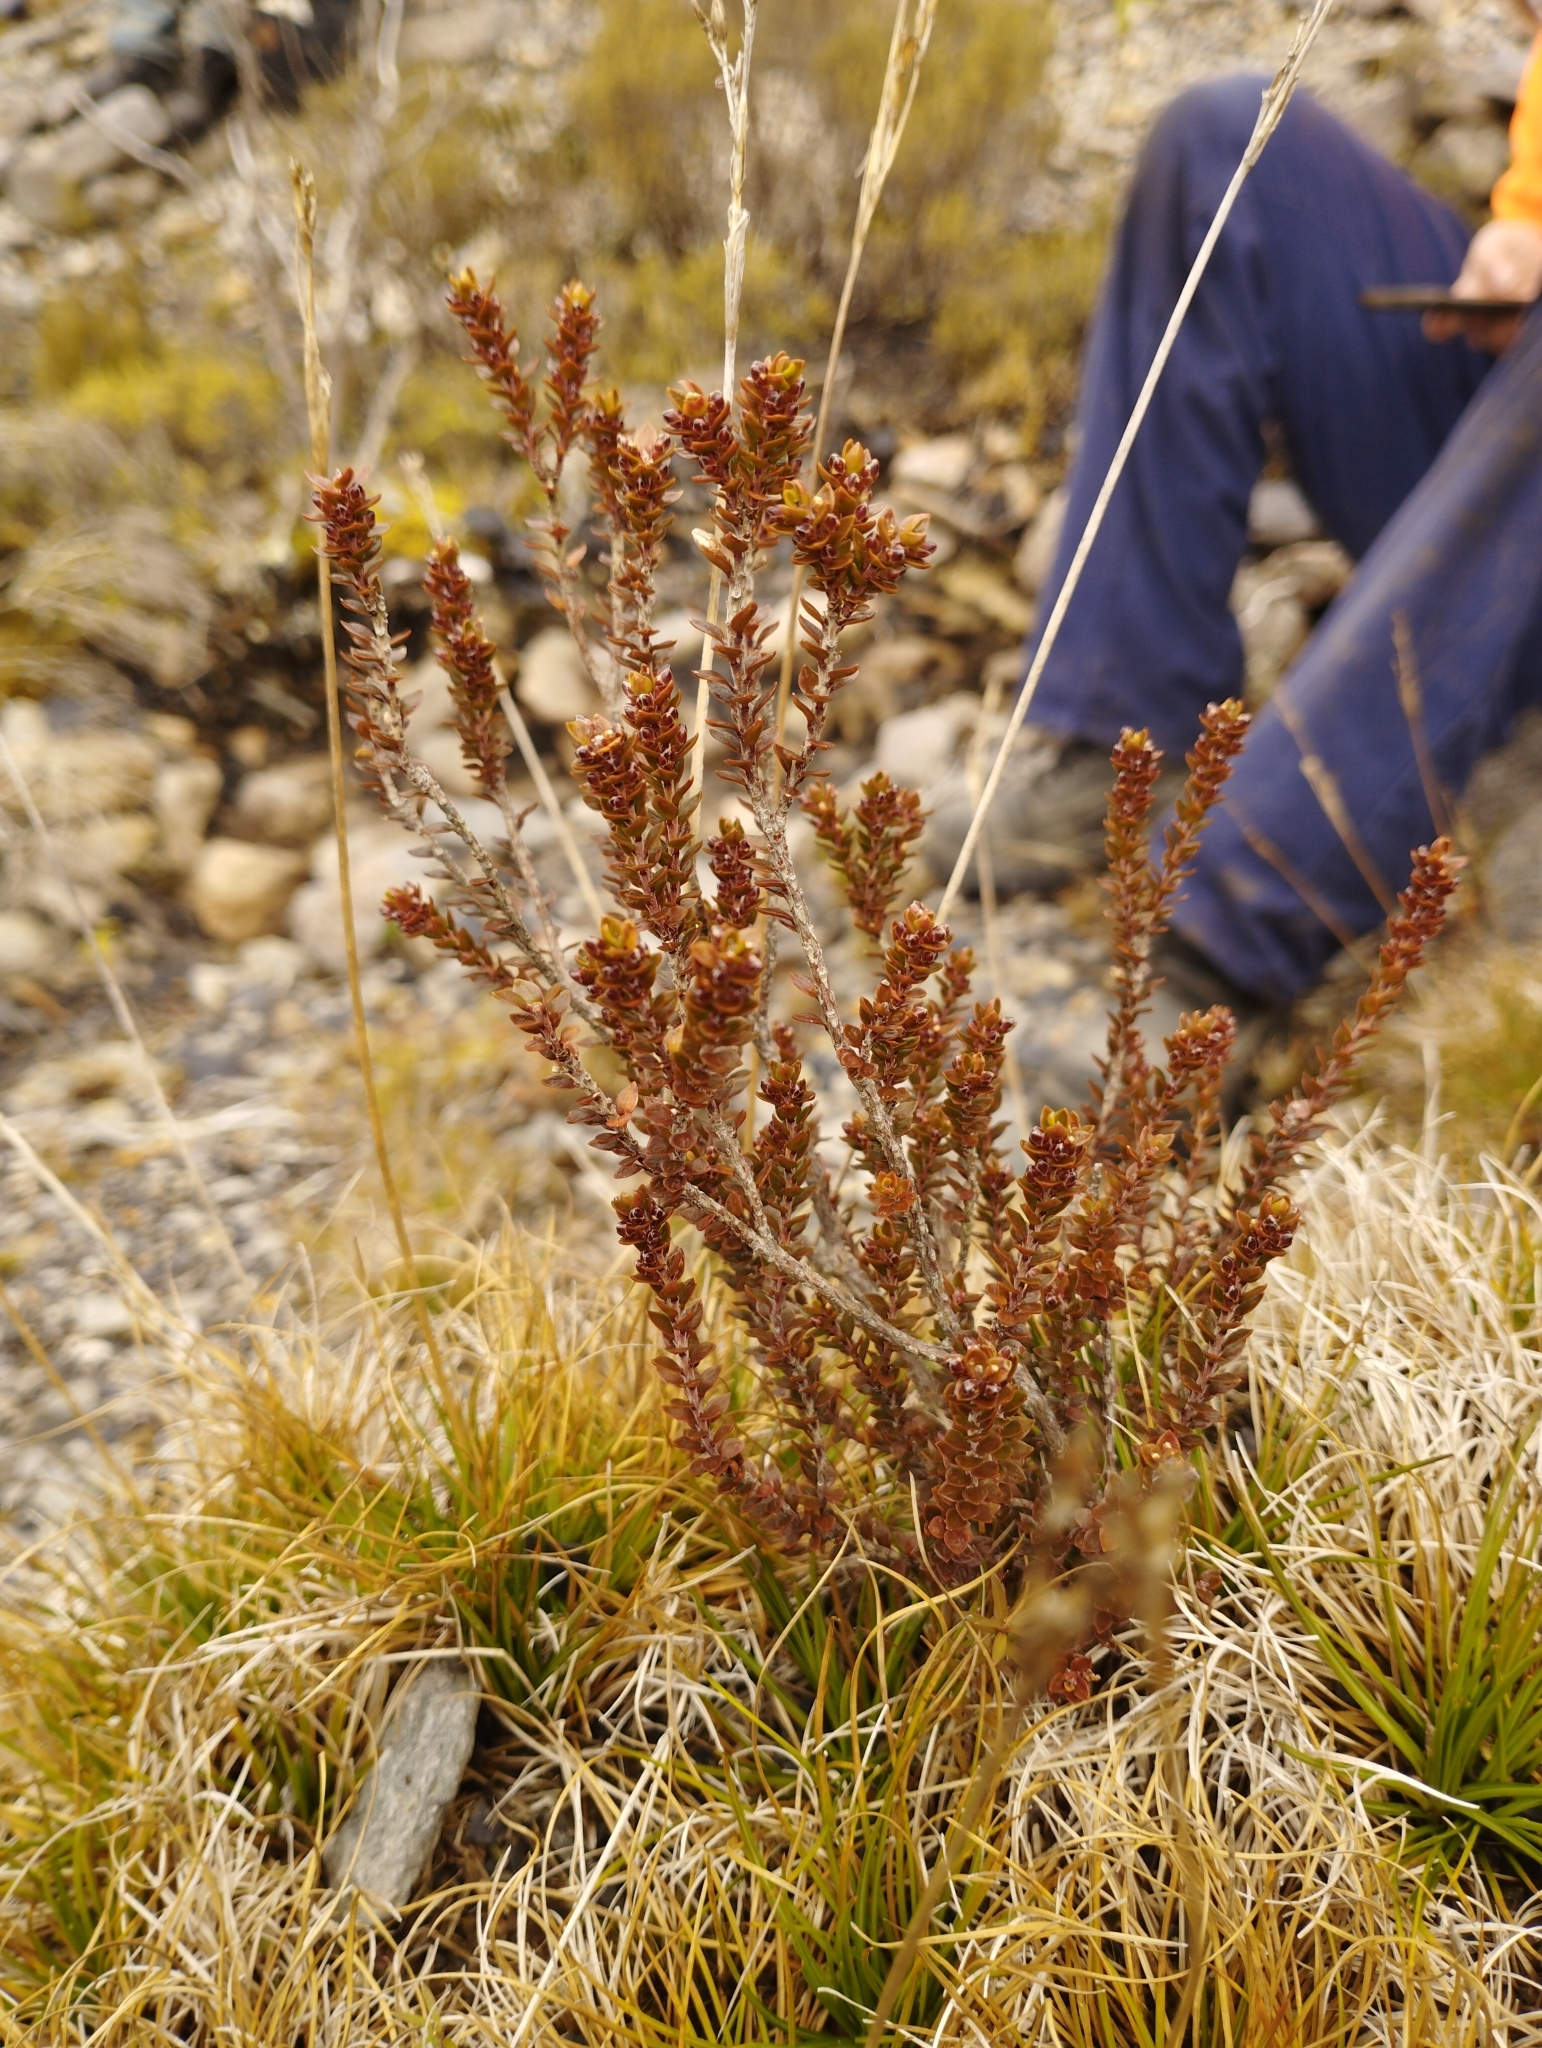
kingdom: Plantae
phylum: Tracheophyta
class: Magnoliopsida
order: Ericales
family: Ericaceae
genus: Epacris
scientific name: Epacris alpina
